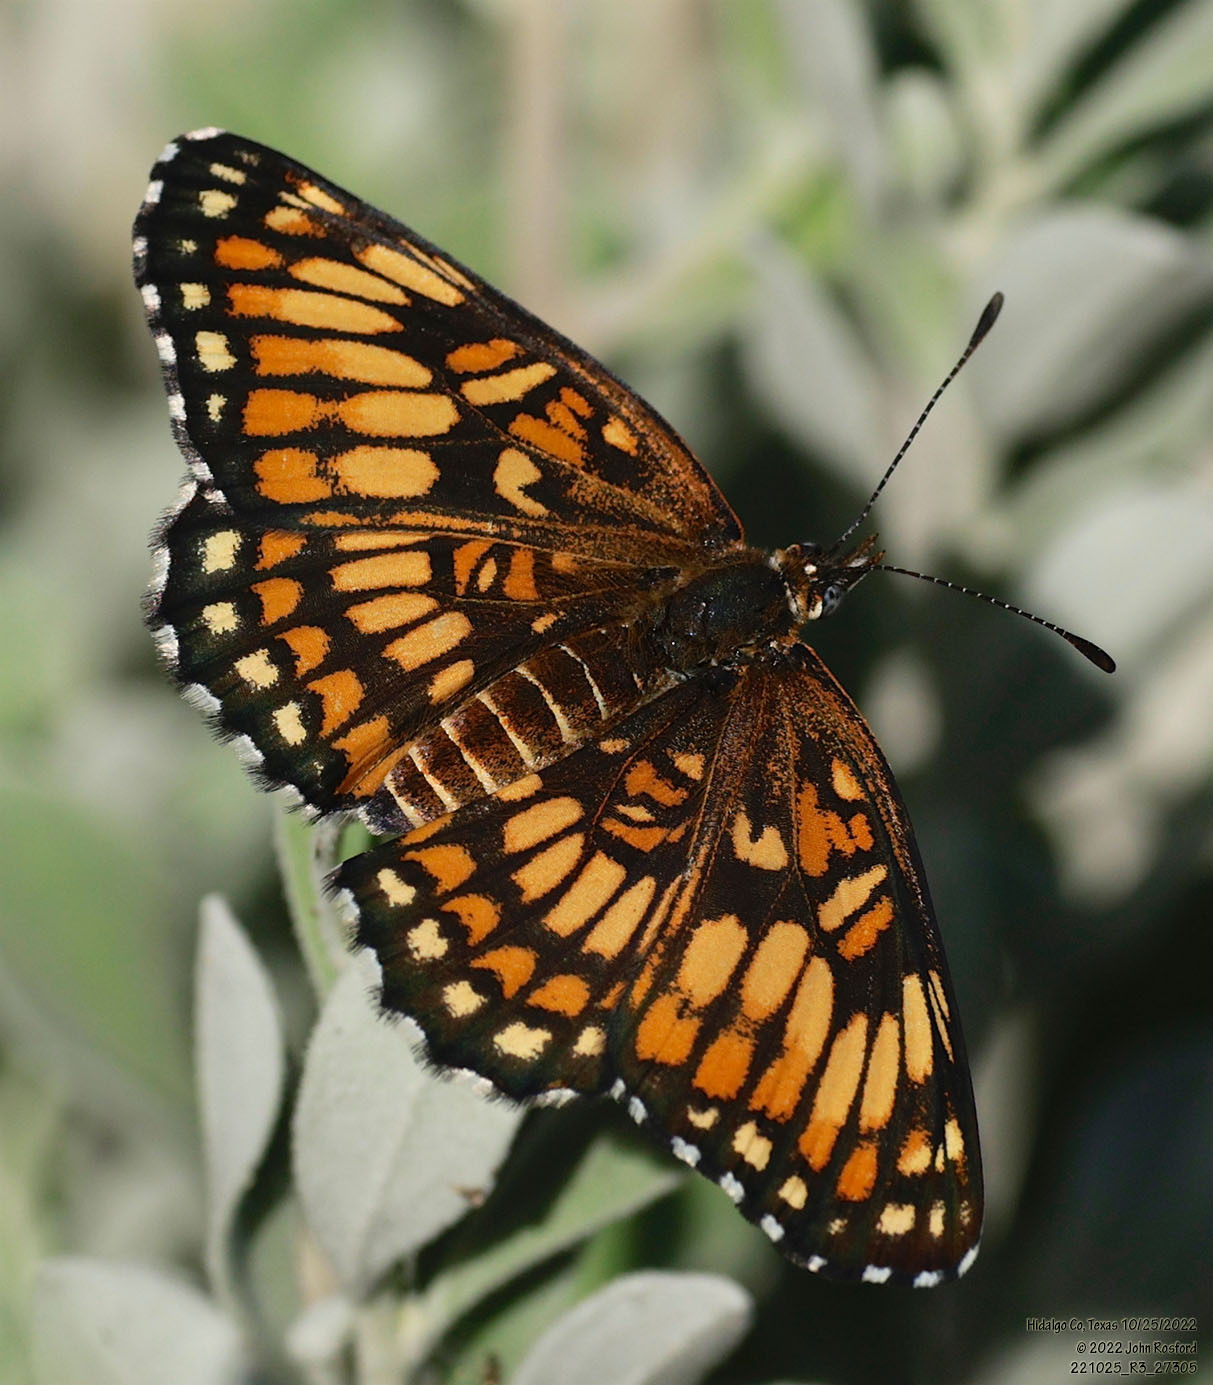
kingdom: Animalia
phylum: Arthropoda
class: Insecta
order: Lepidoptera
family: Nymphalidae
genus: Thessalia
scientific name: Thessalia theona
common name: Nymphalid moth
